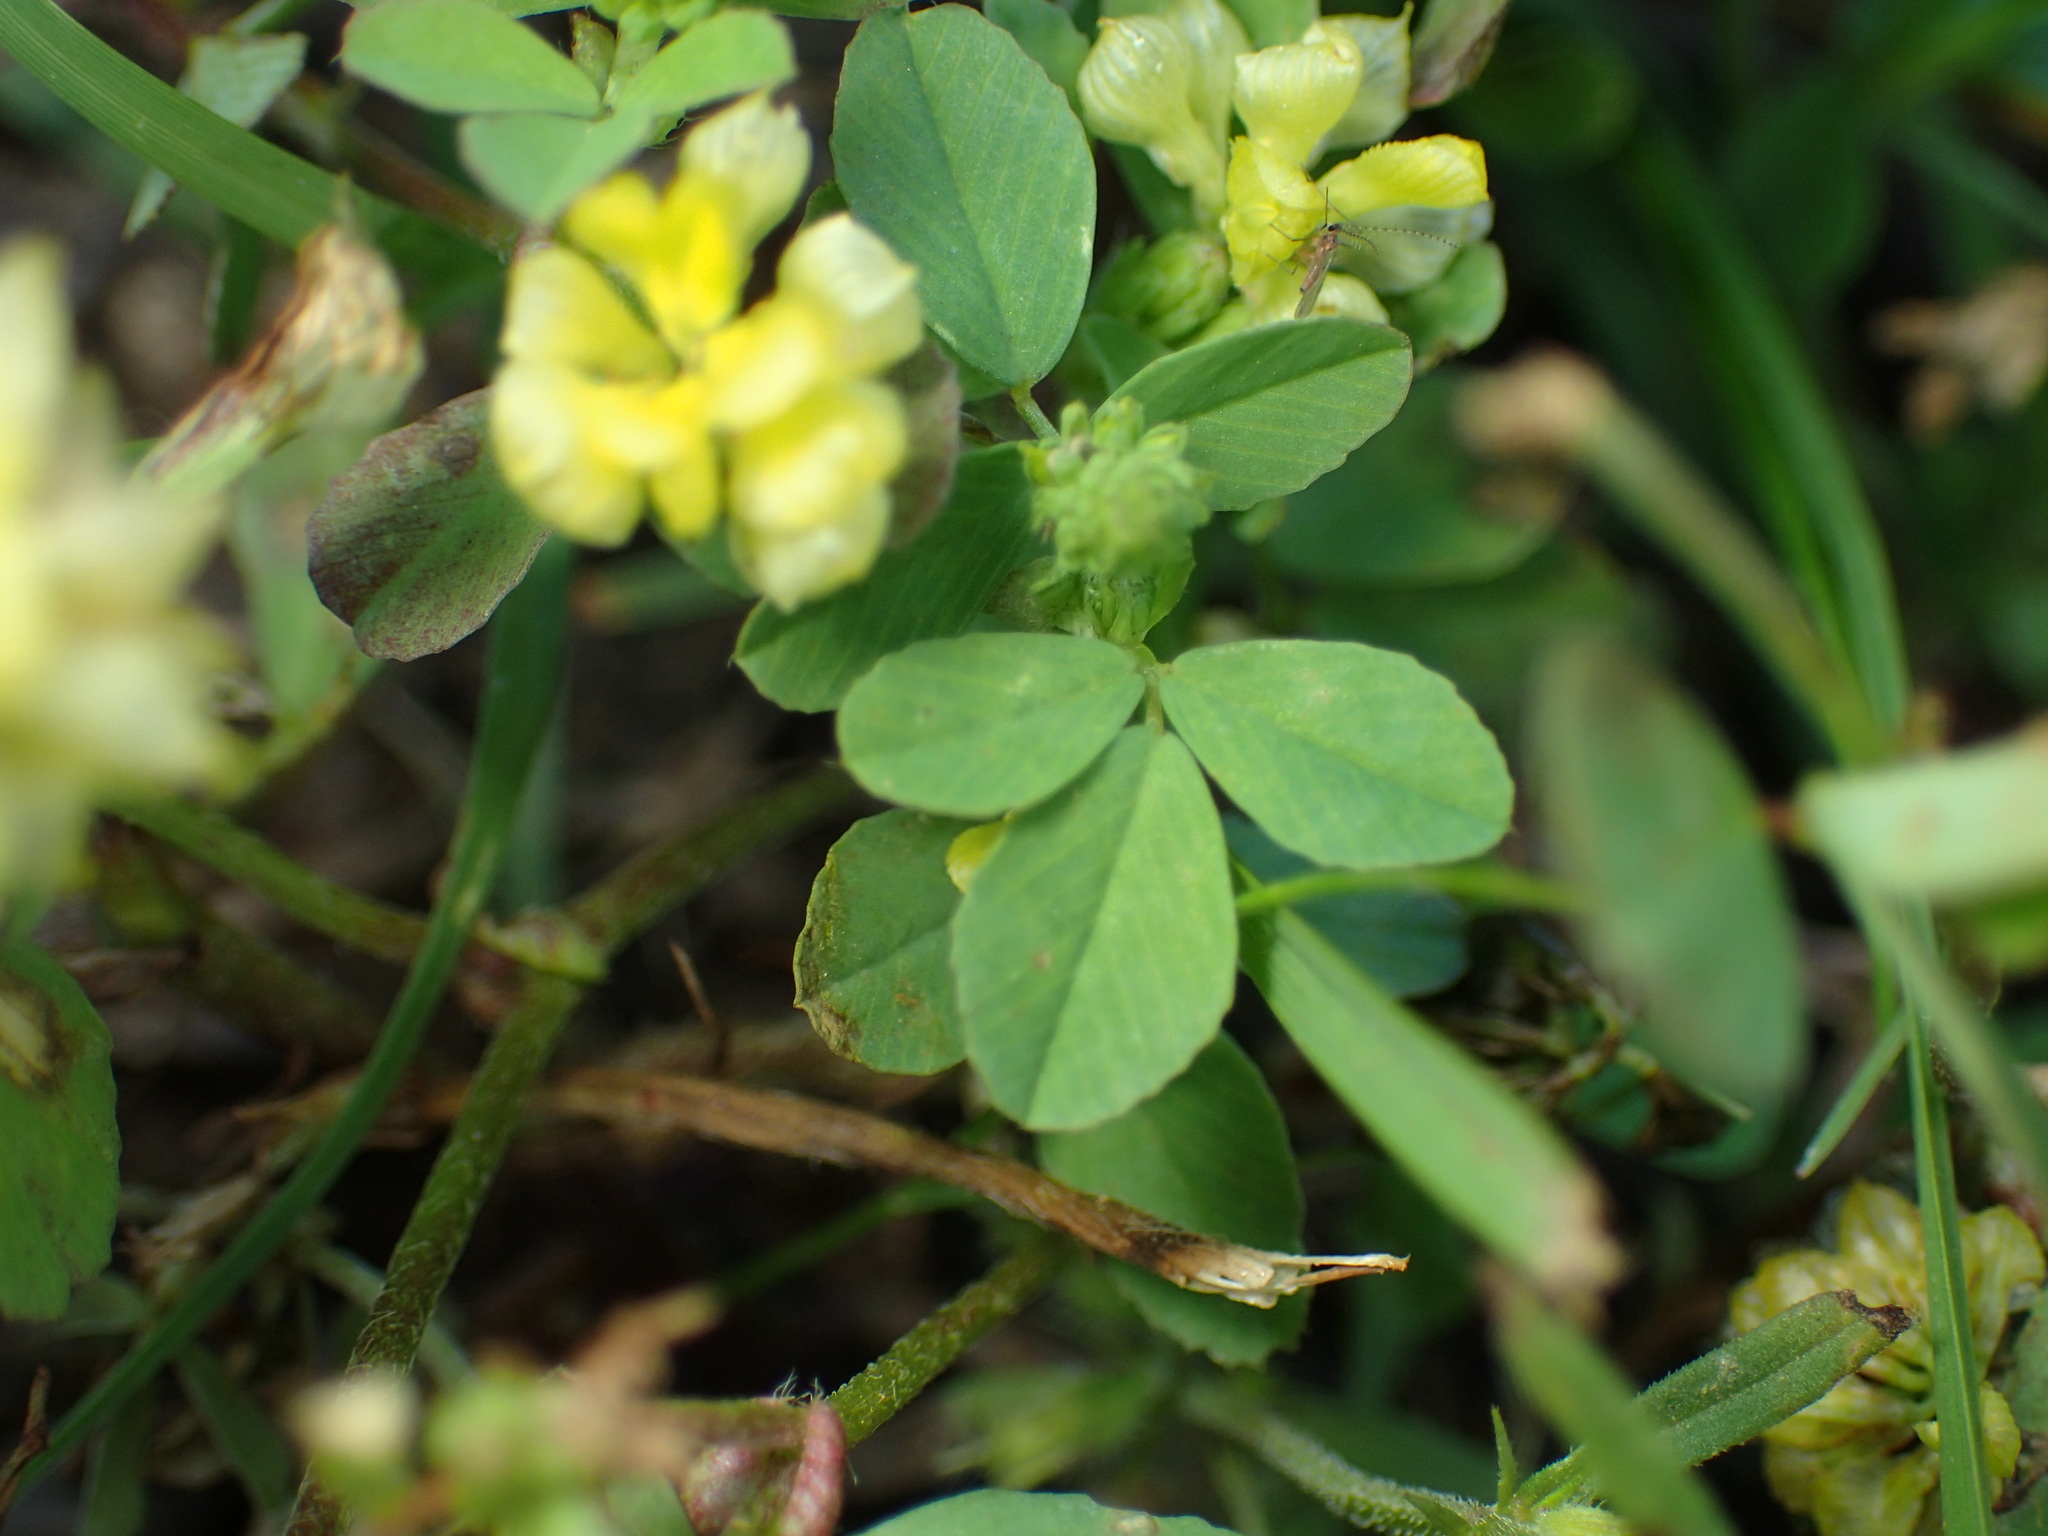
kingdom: Plantae
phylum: Tracheophyta
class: Magnoliopsida
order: Fabales
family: Fabaceae
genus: Trifolium
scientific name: Trifolium campestre
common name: Field clover
